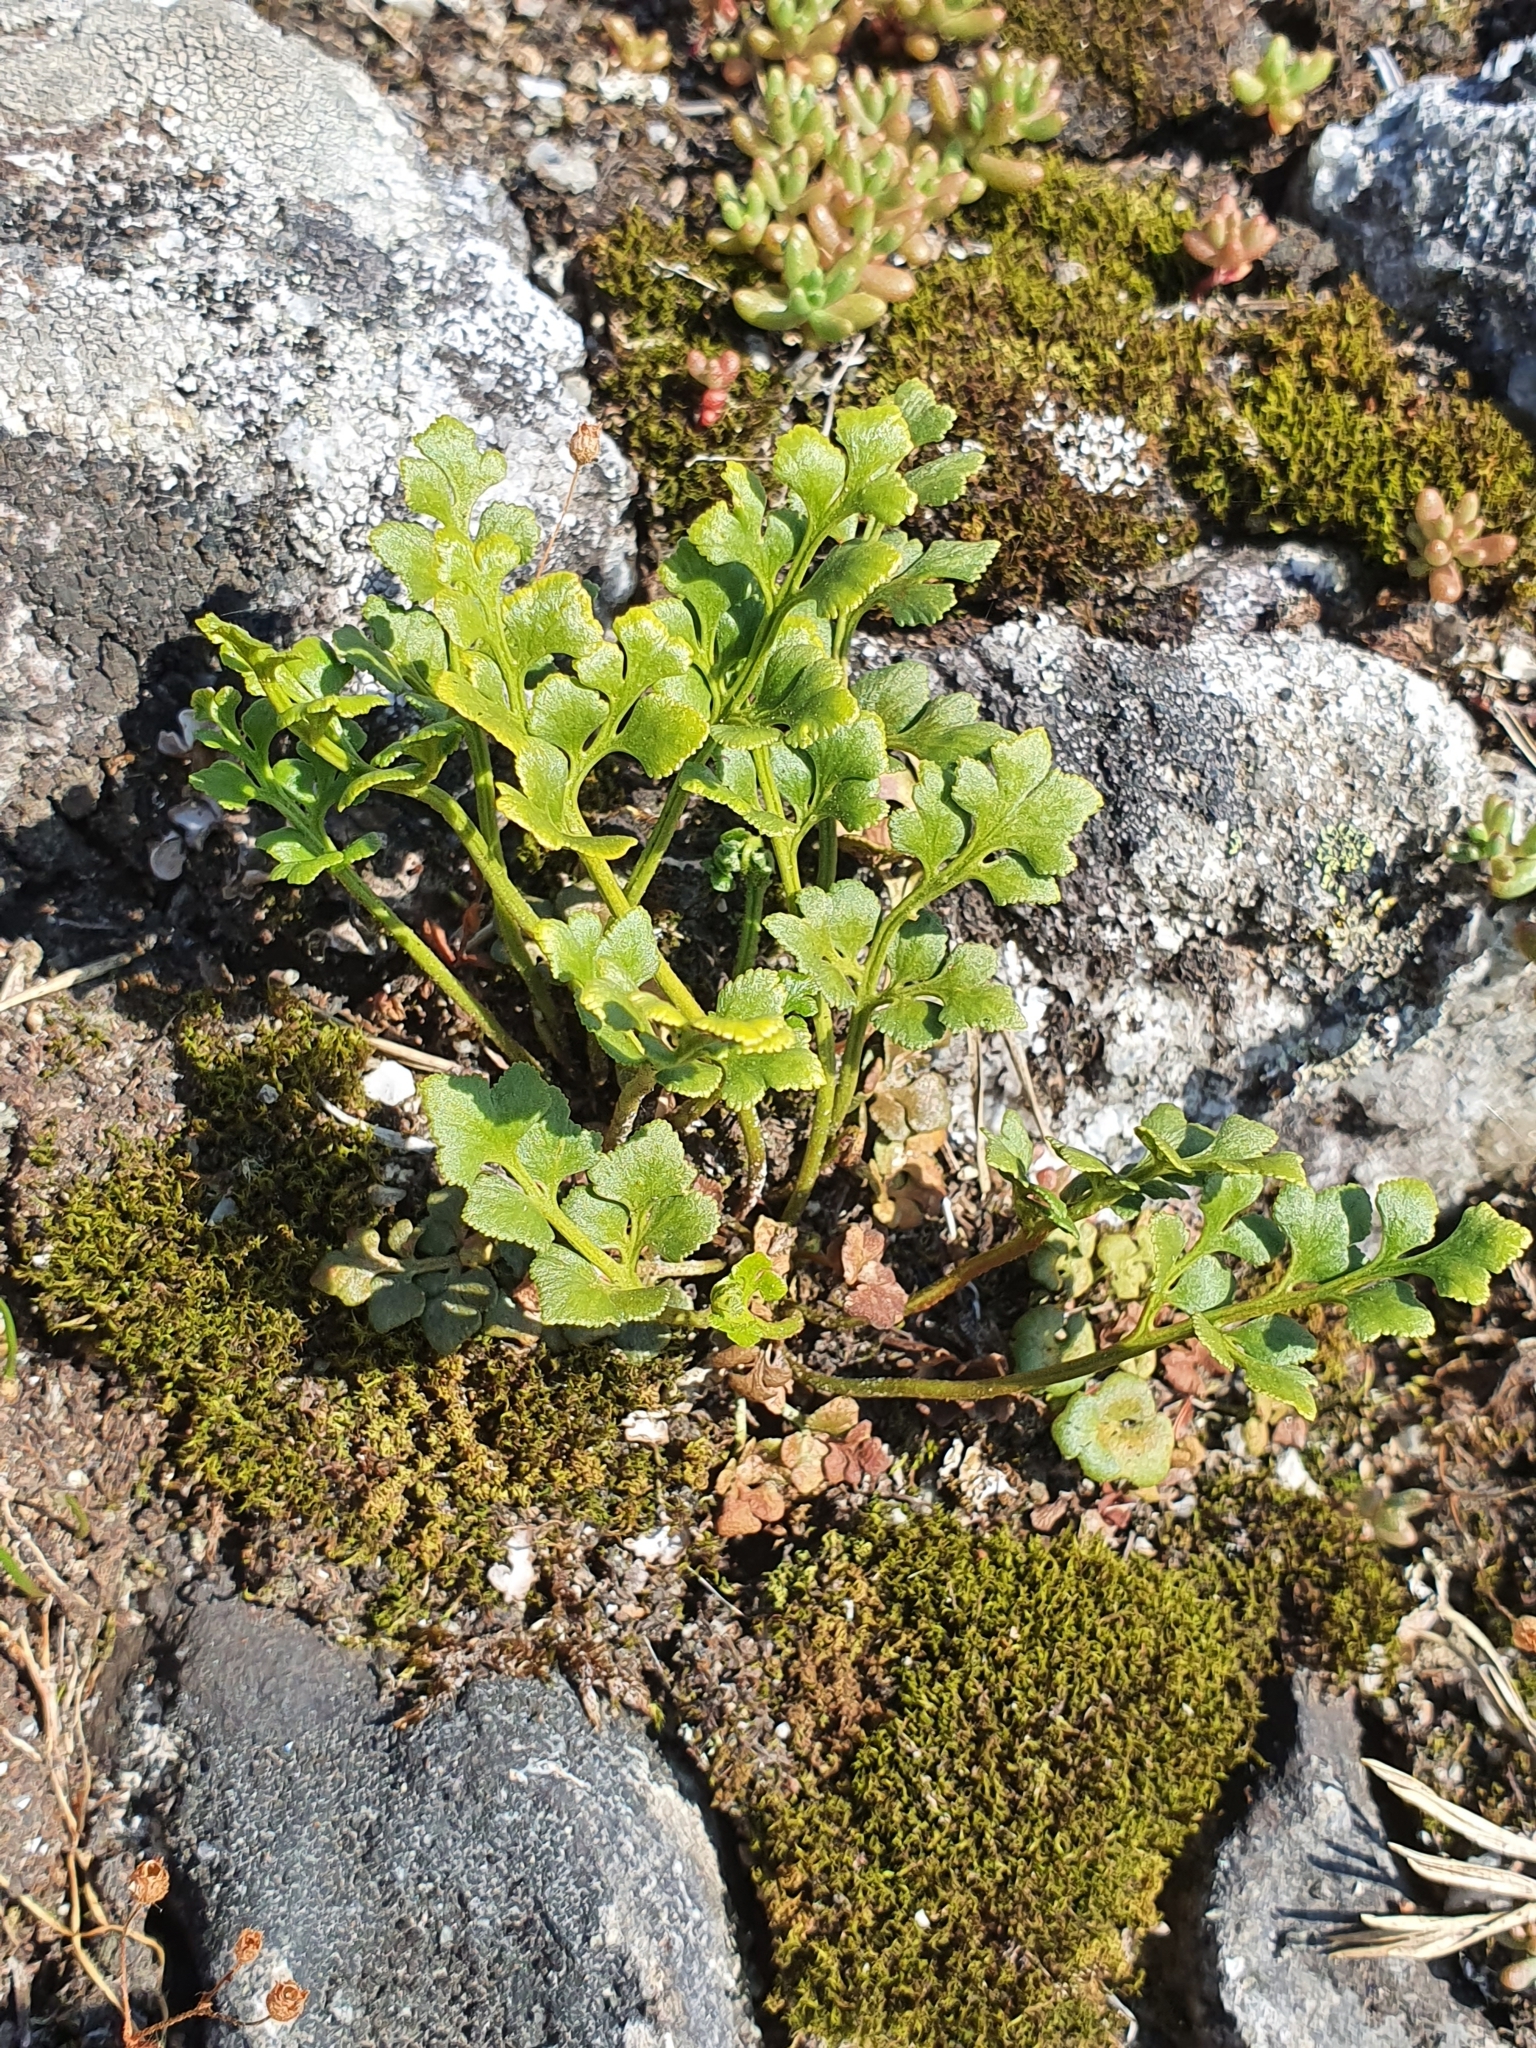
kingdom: Plantae
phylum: Tracheophyta
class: Polypodiopsida
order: Polypodiales
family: Aspleniaceae
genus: Asplenium
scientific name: Asplenium ruta-muraria
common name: Wall-rue
